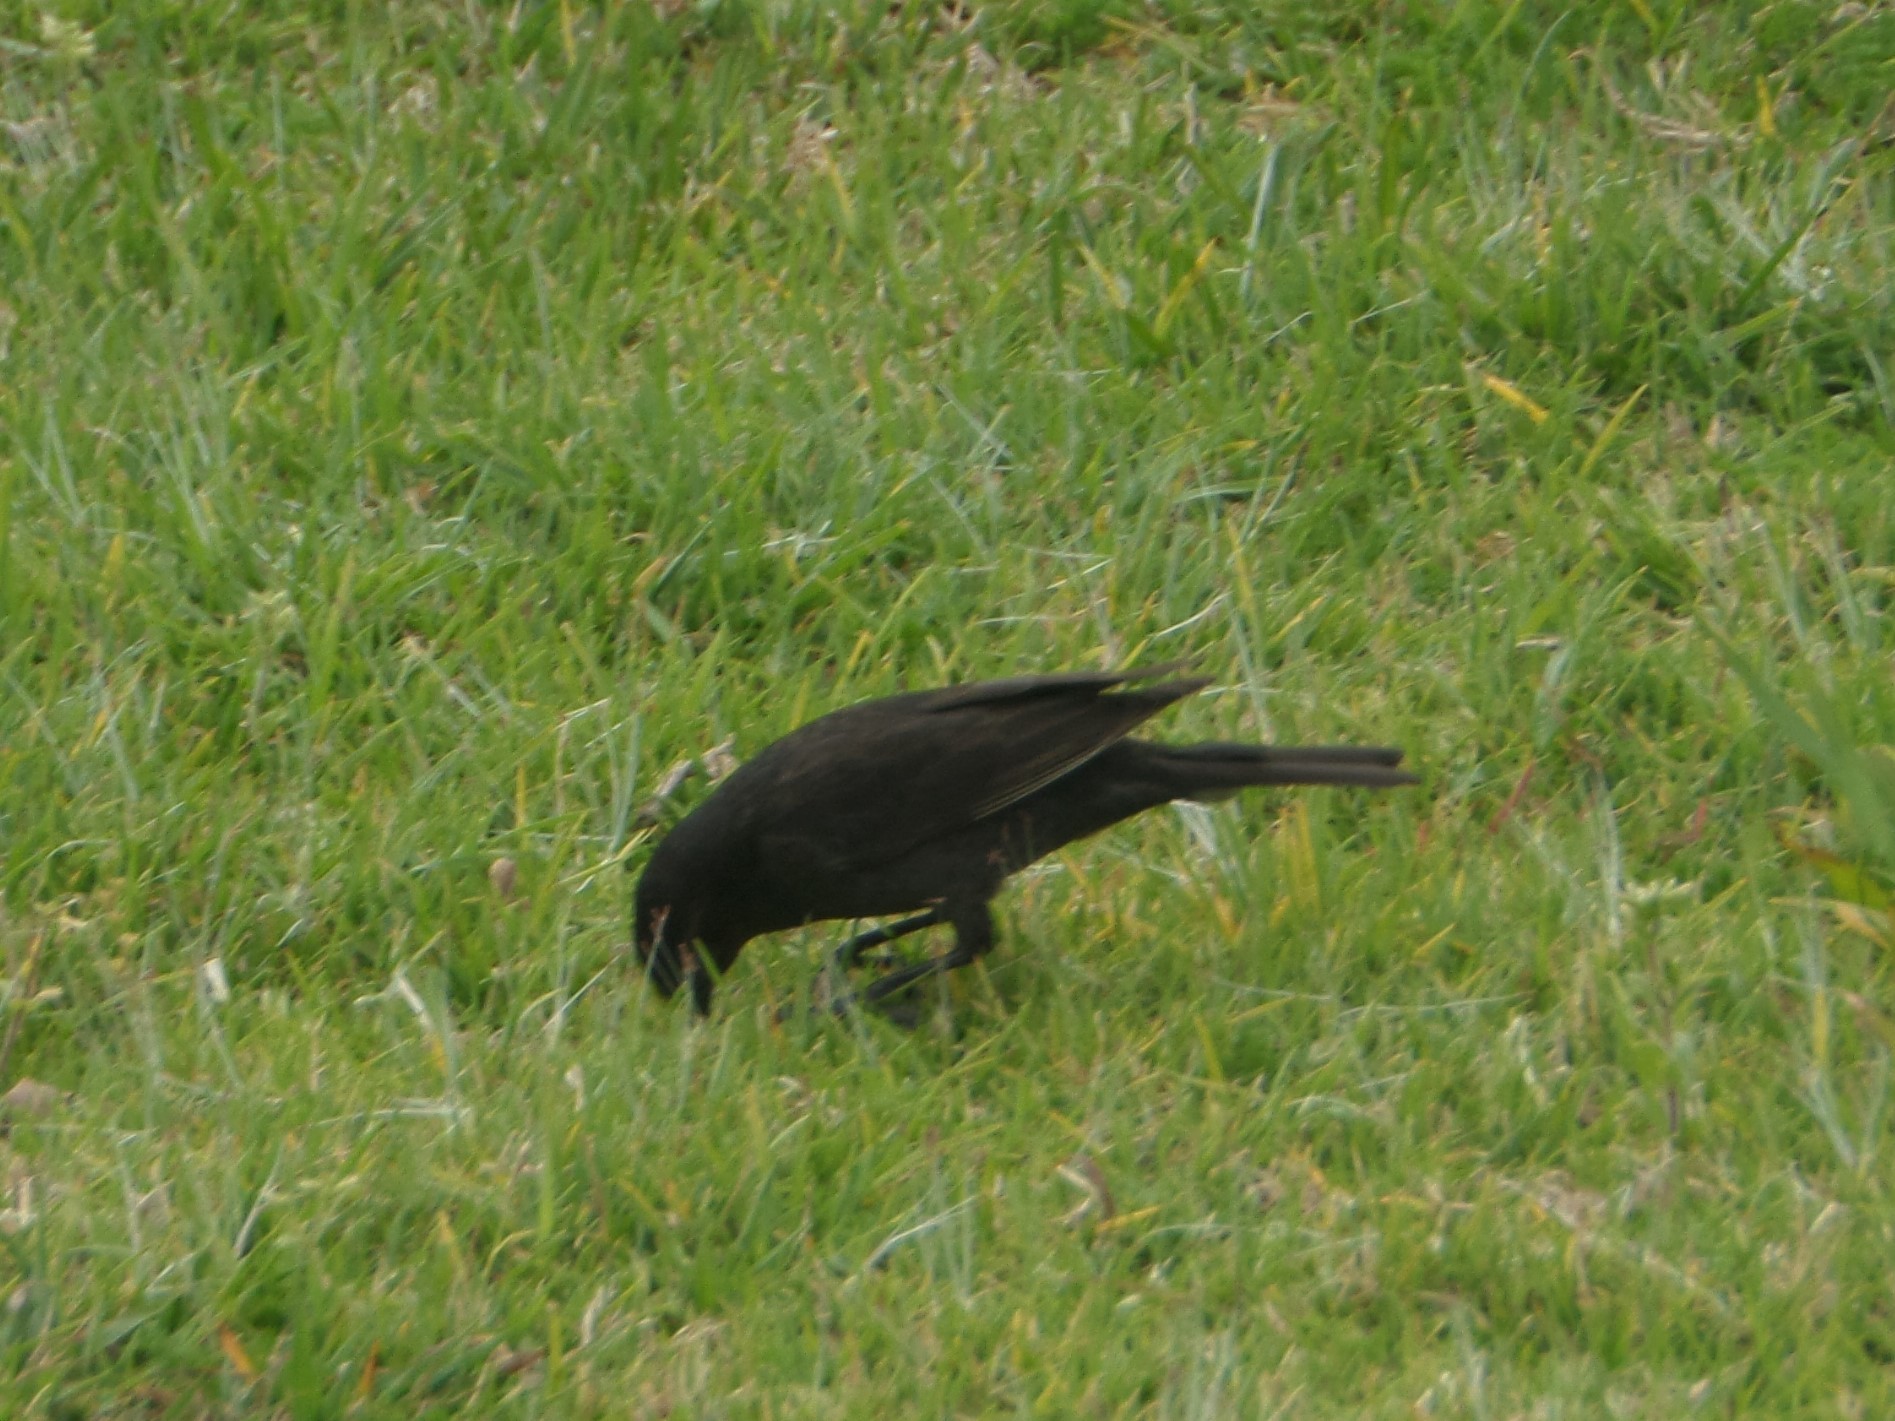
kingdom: Animalia
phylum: Chordata
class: Aves
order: Passeriformes
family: Icteridae
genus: Molothrus
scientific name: Molothrus bonariensis
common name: Shiny cowbird
